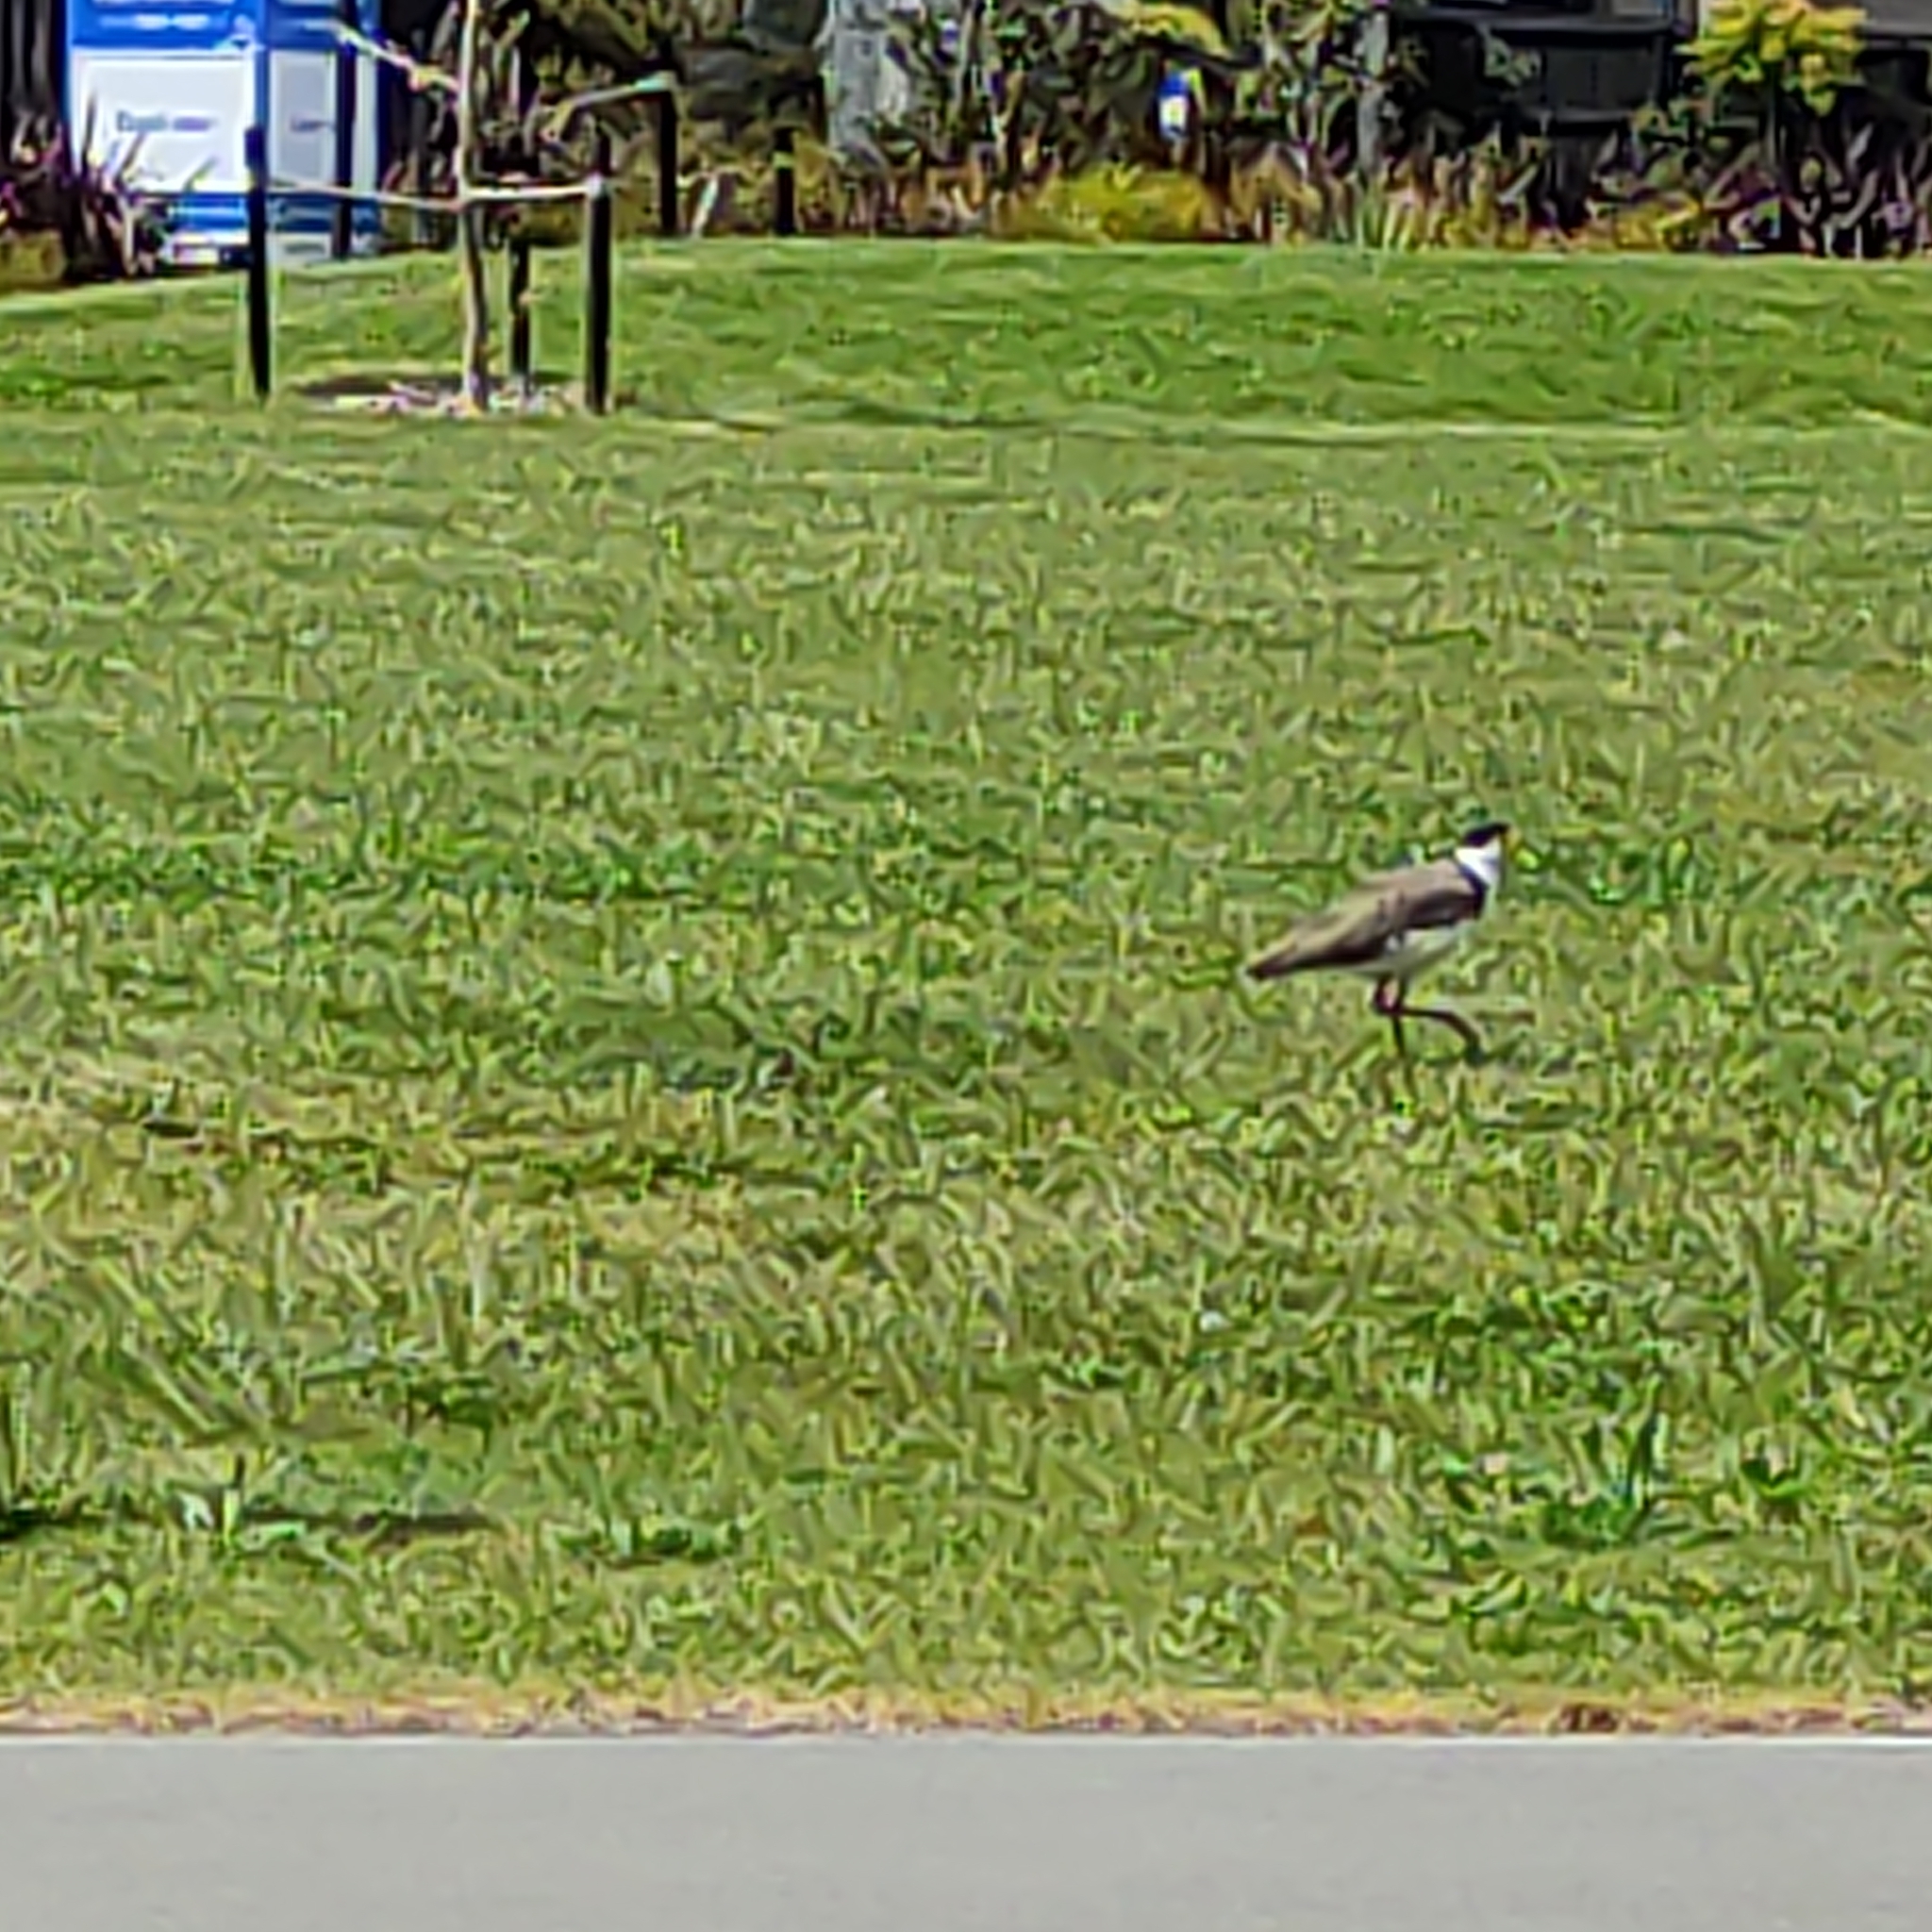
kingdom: Animalia
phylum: Chordata
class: Aves
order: Charadriiformes
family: Charadriidae
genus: Vanellus
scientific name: Vanellus miles
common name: Masked lapwing
